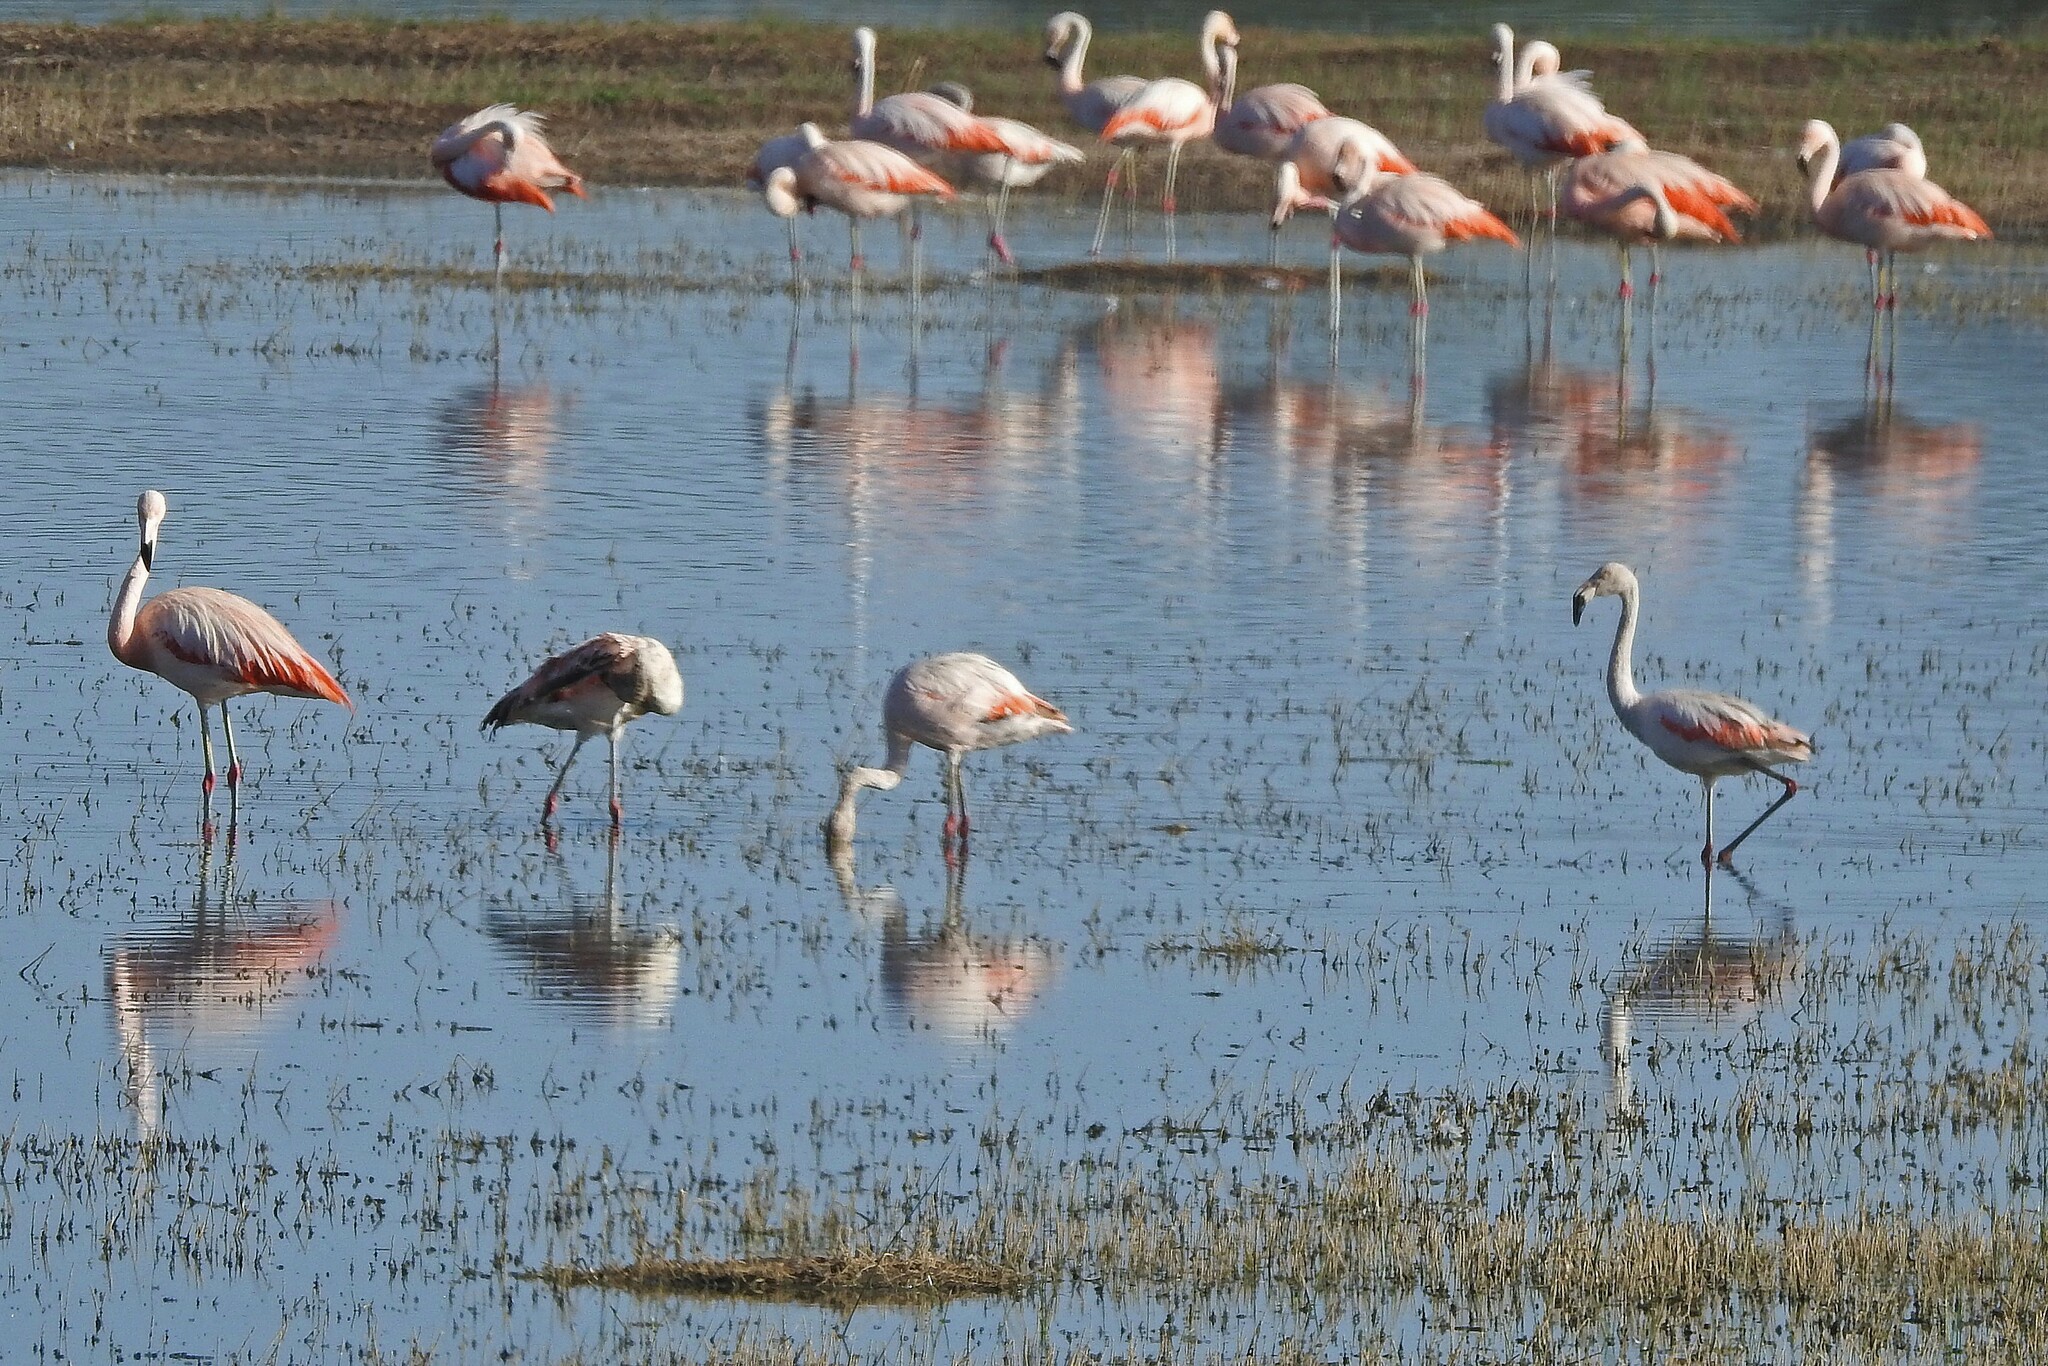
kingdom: Animalia
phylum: Chordata
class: Aves
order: Phoenicopteriformes
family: Phoenicopteridae
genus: Phoenicopterus
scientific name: Phoenicopterus chilensis
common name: Chilean flamingo
